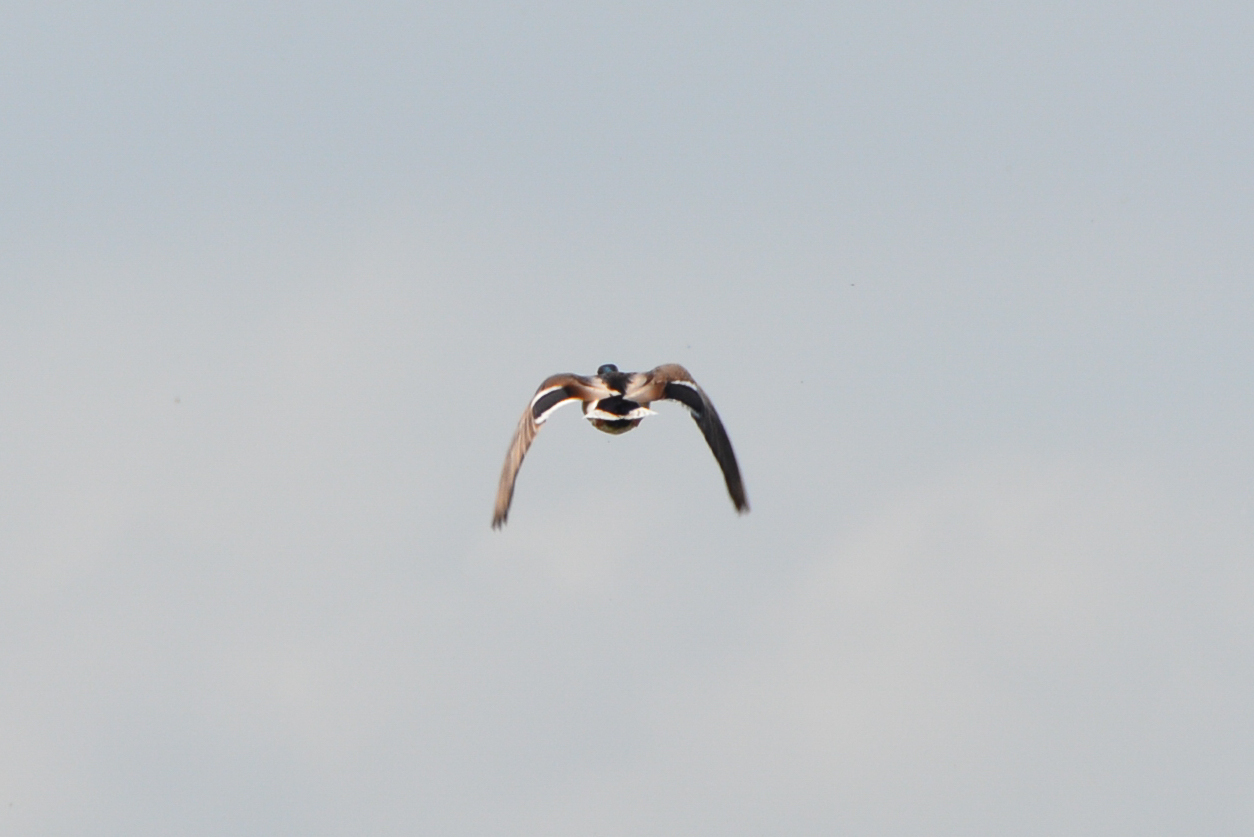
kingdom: Animalia
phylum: Chordata
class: Aves
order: Anseriformes
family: Anatidae
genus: Anas
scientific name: Anas platyrhynchos
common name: Mallard
